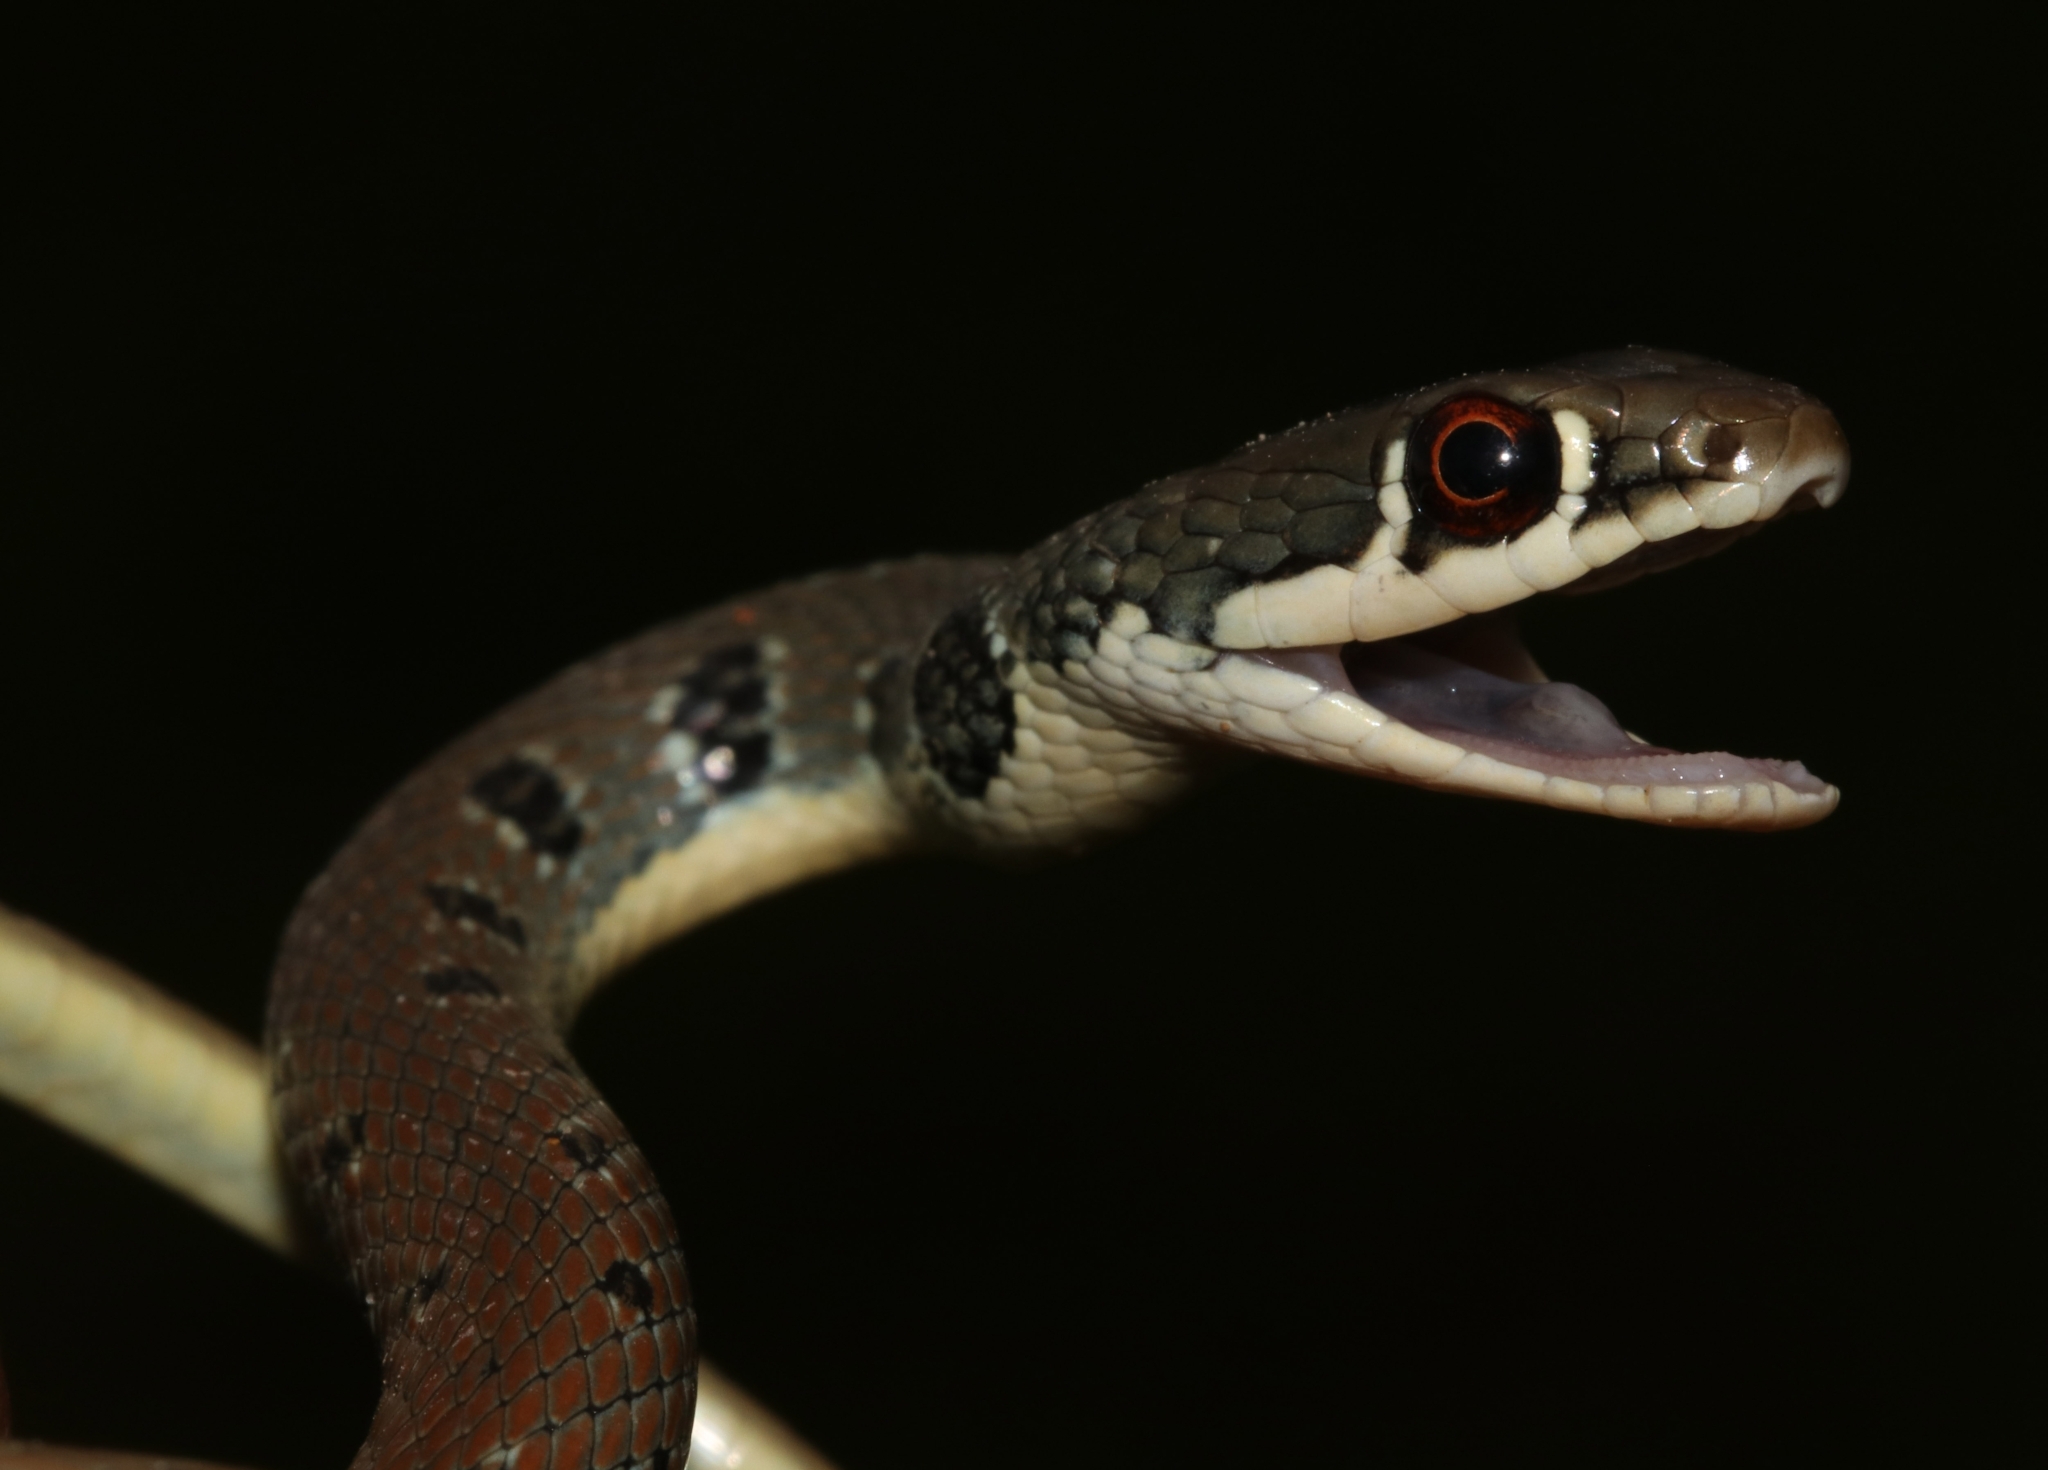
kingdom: Animalia
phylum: Chordata
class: Squamata
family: Colubridae
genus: Platyceps
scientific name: Platyceps najadum
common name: Dahl's whip snake
